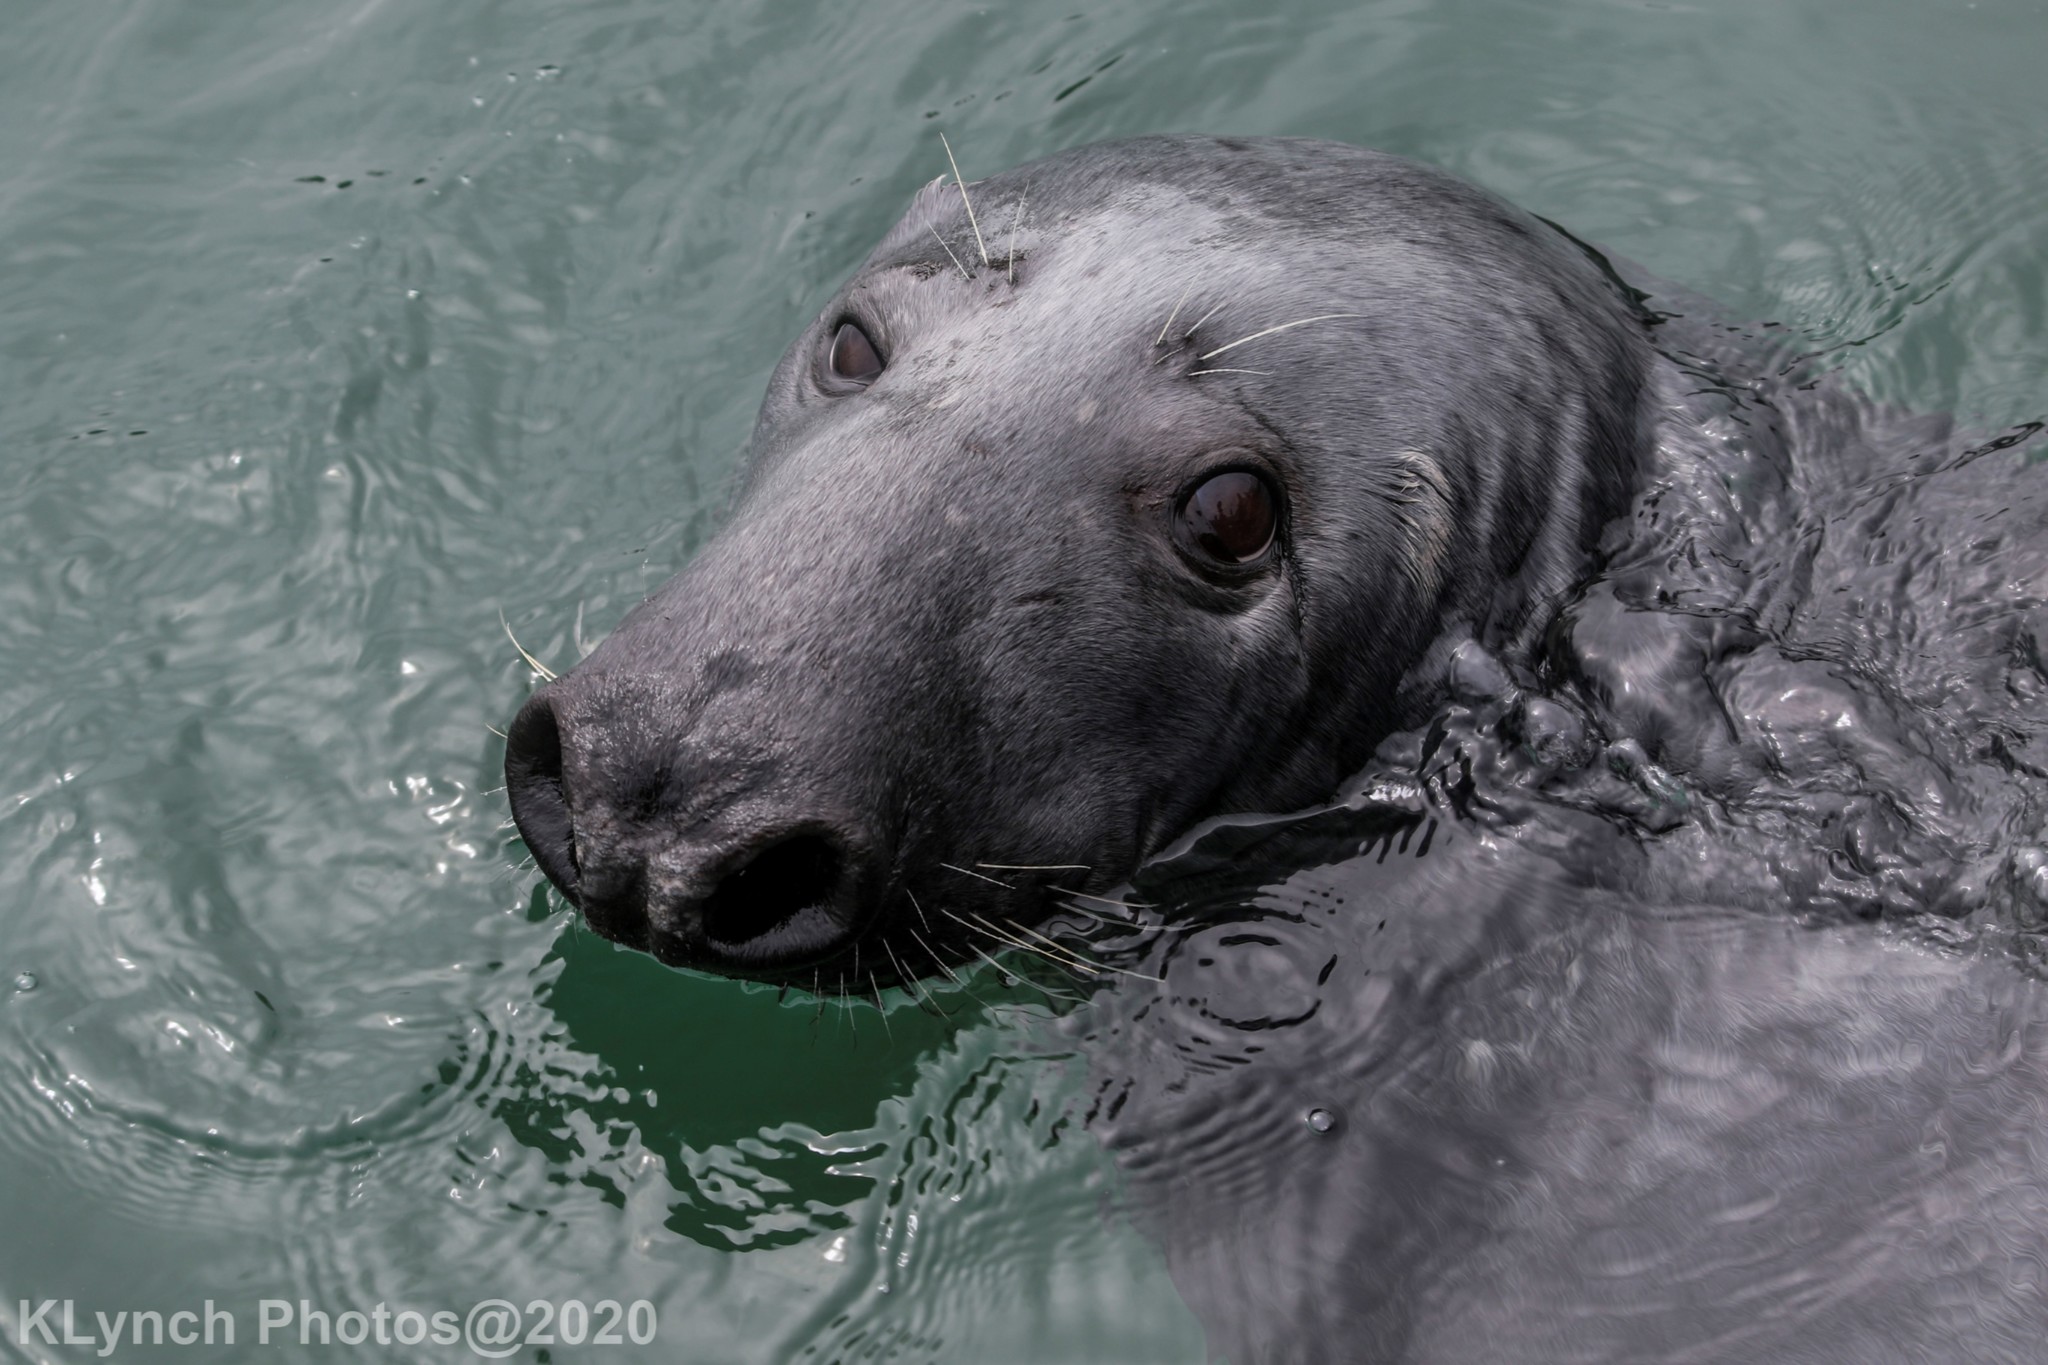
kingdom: Animalia
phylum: Chordata
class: Mammalia
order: Carnivora
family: Phocidae
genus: Halichoerus
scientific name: Halichoerus grypus
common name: Grey seal
